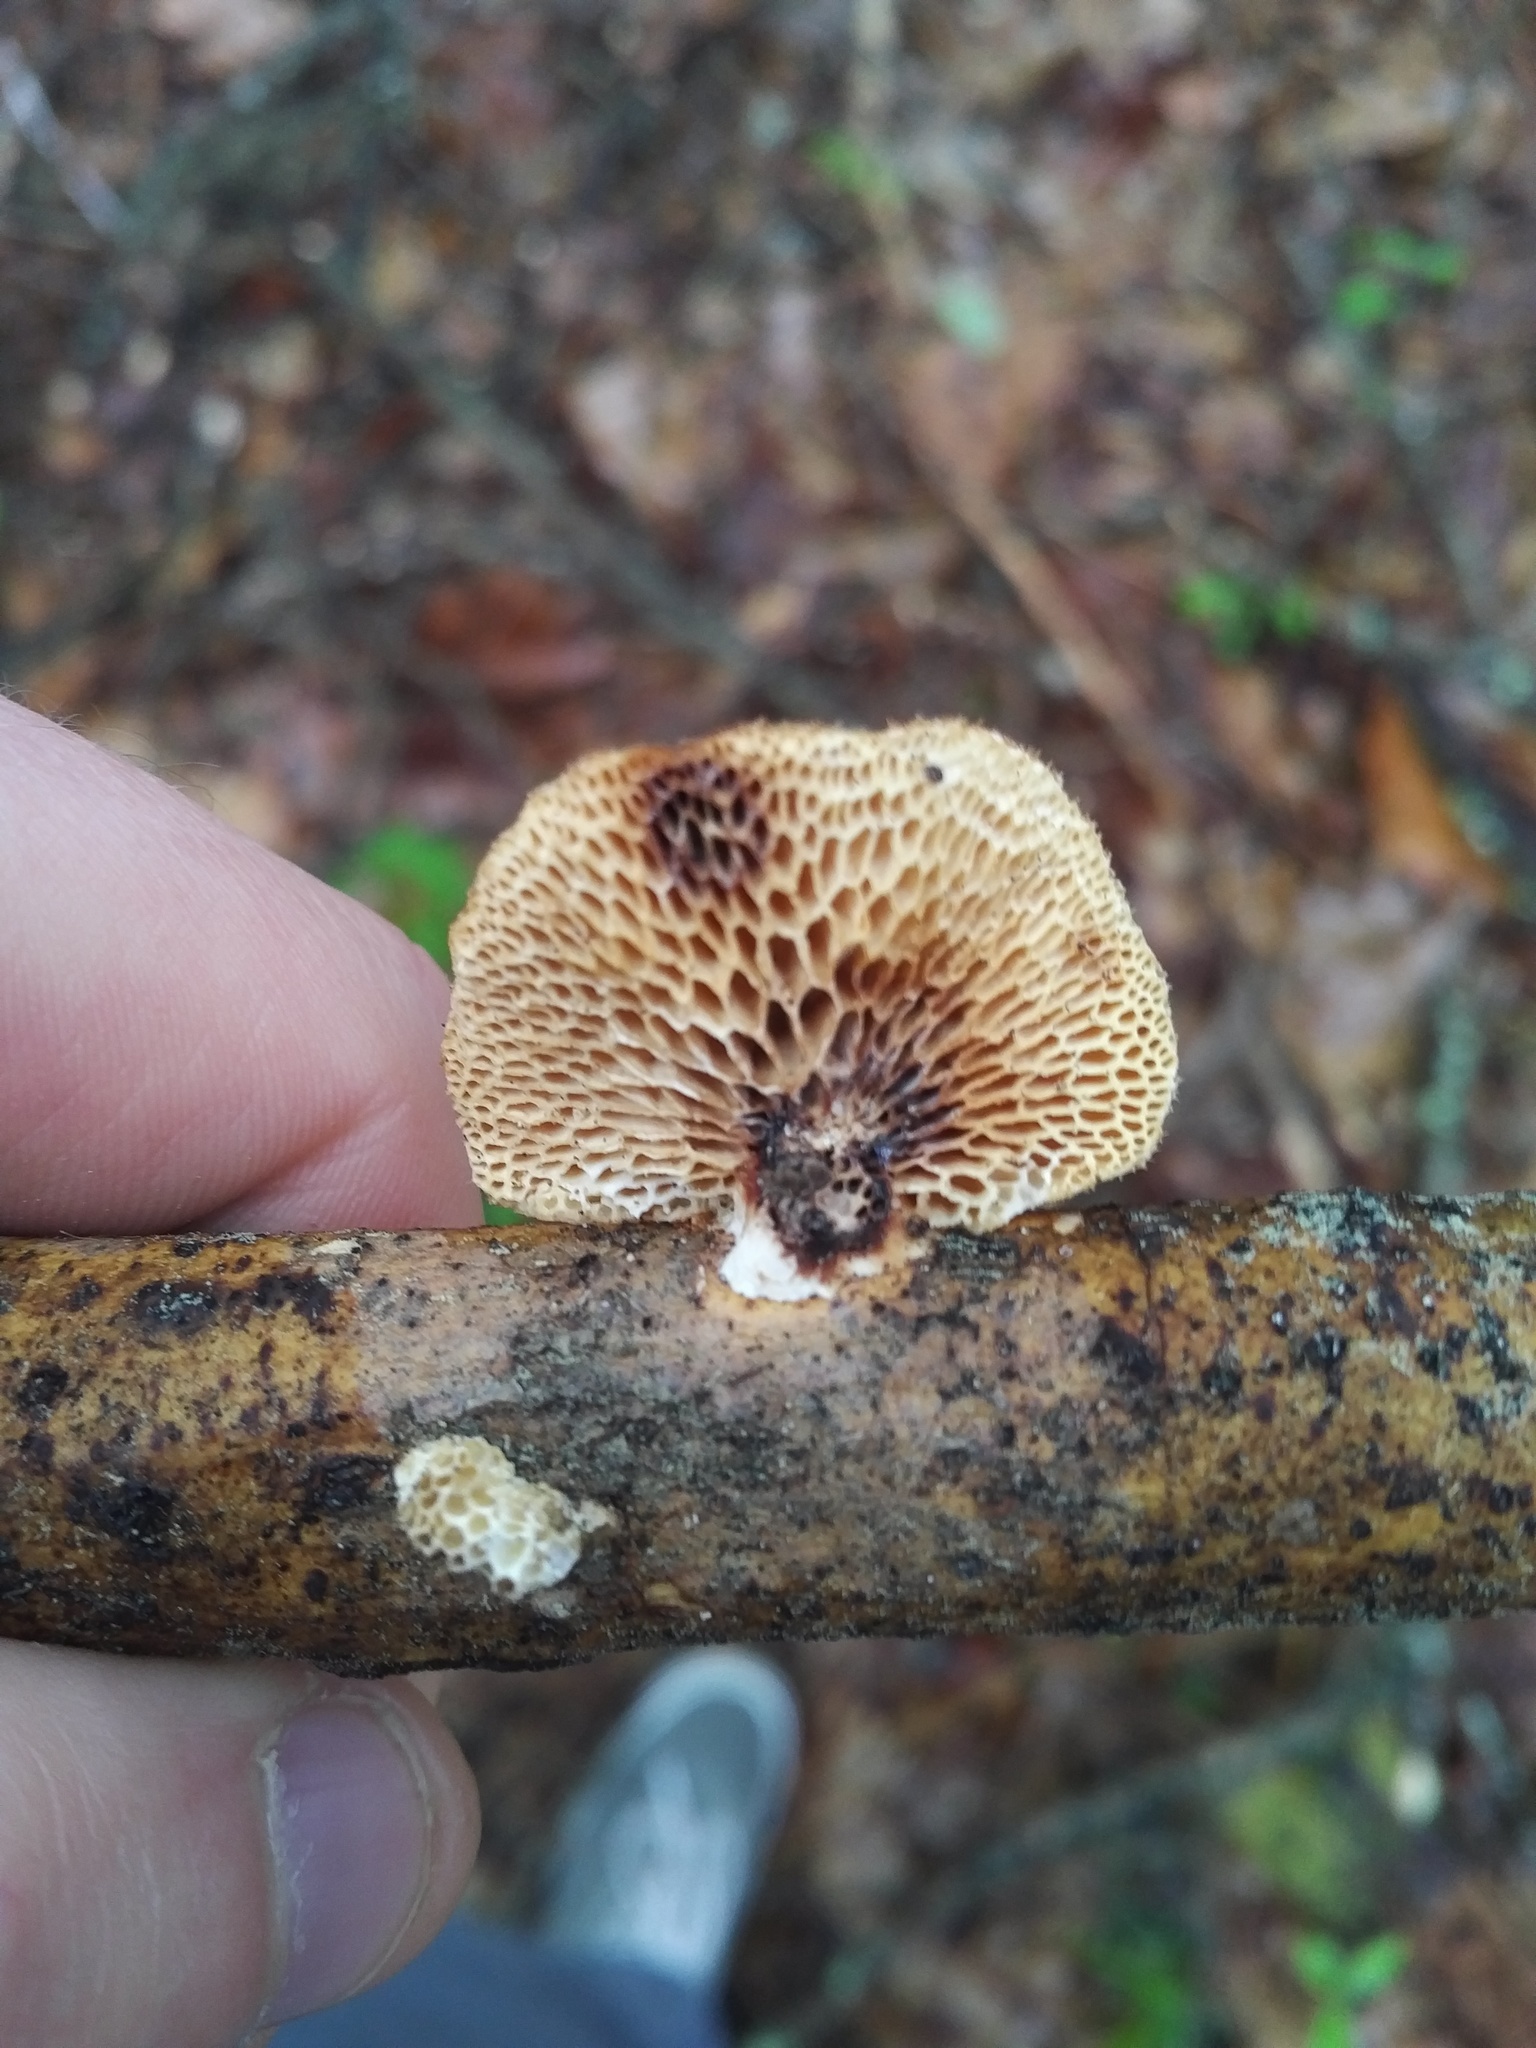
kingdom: Fungi
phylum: Basidiomycota
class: Agaricomycetes
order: Polyporales
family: Polyporaceae
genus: Neofavolus
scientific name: Neofavolus alveolaris
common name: Hexagonal-pored polypore
